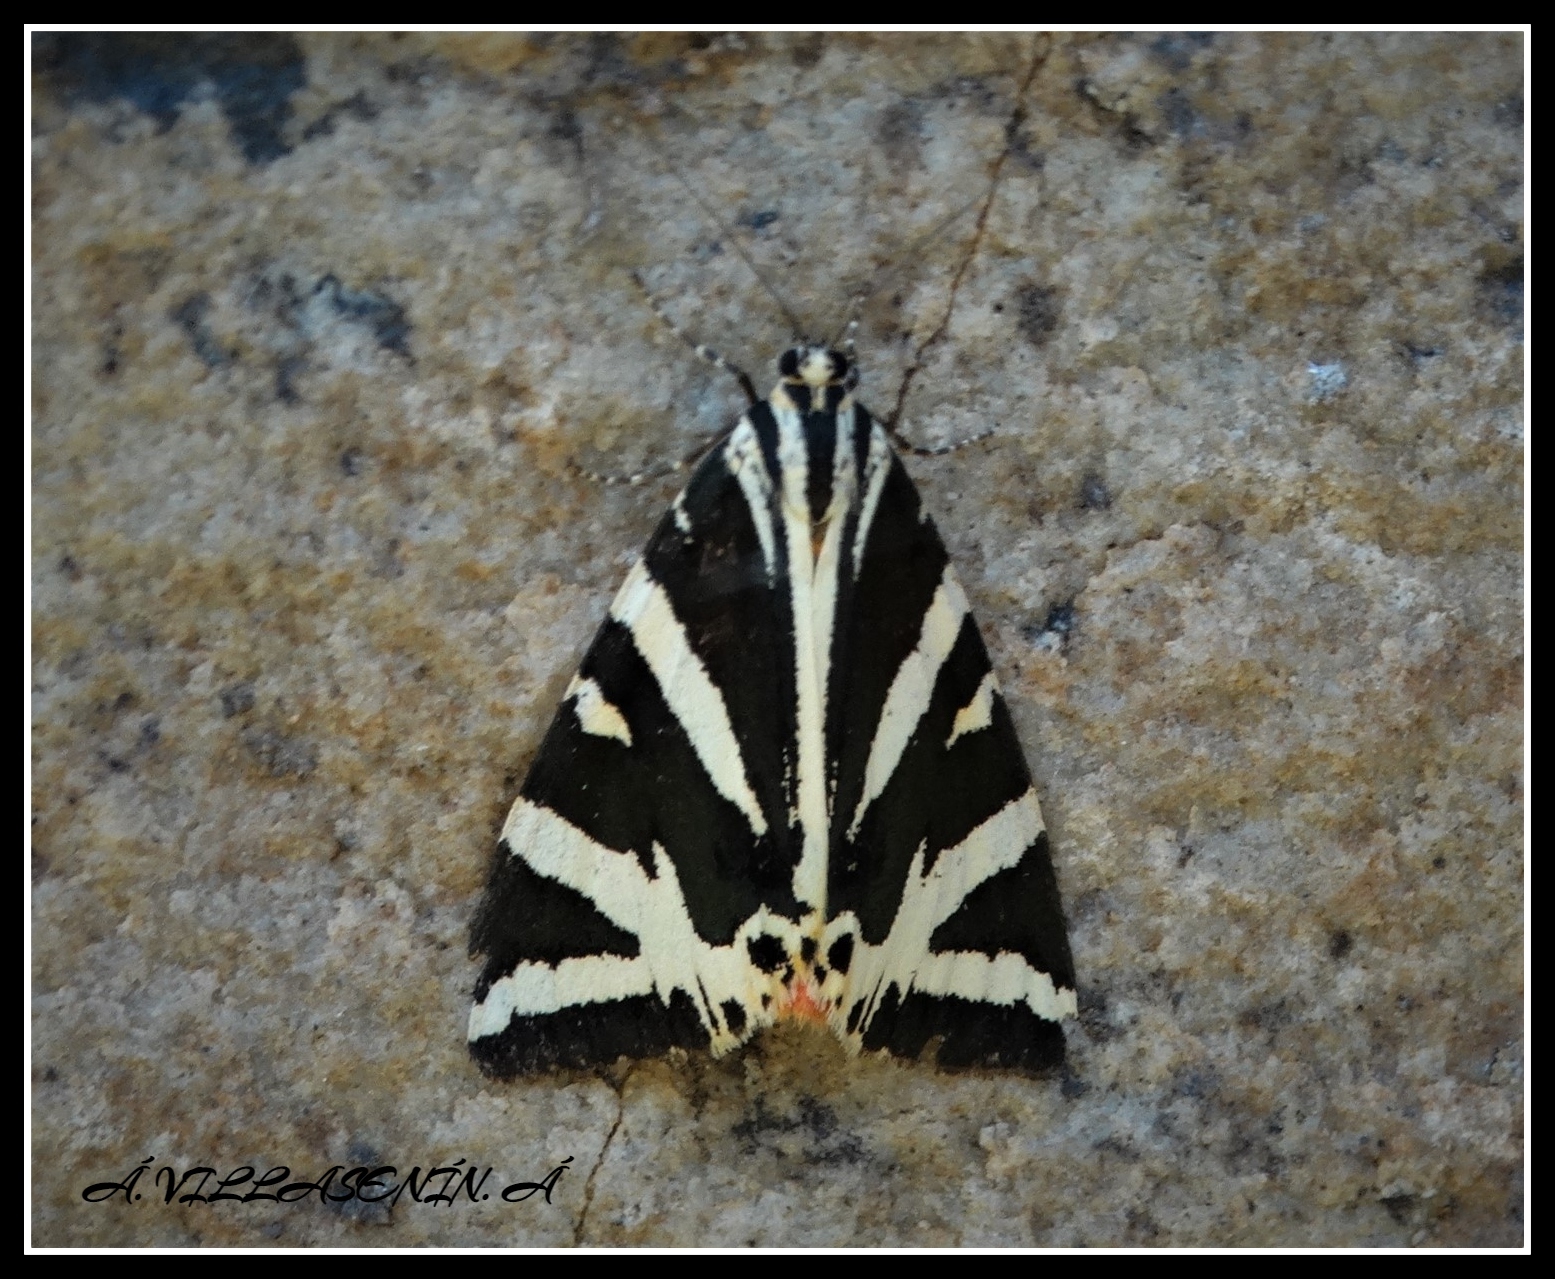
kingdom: Animalia
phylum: Arthropoda
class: Insecta
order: Lepidoptera
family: Erebidae
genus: Euplagia
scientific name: Euplagia quadripunctaria
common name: Jersey tiger
